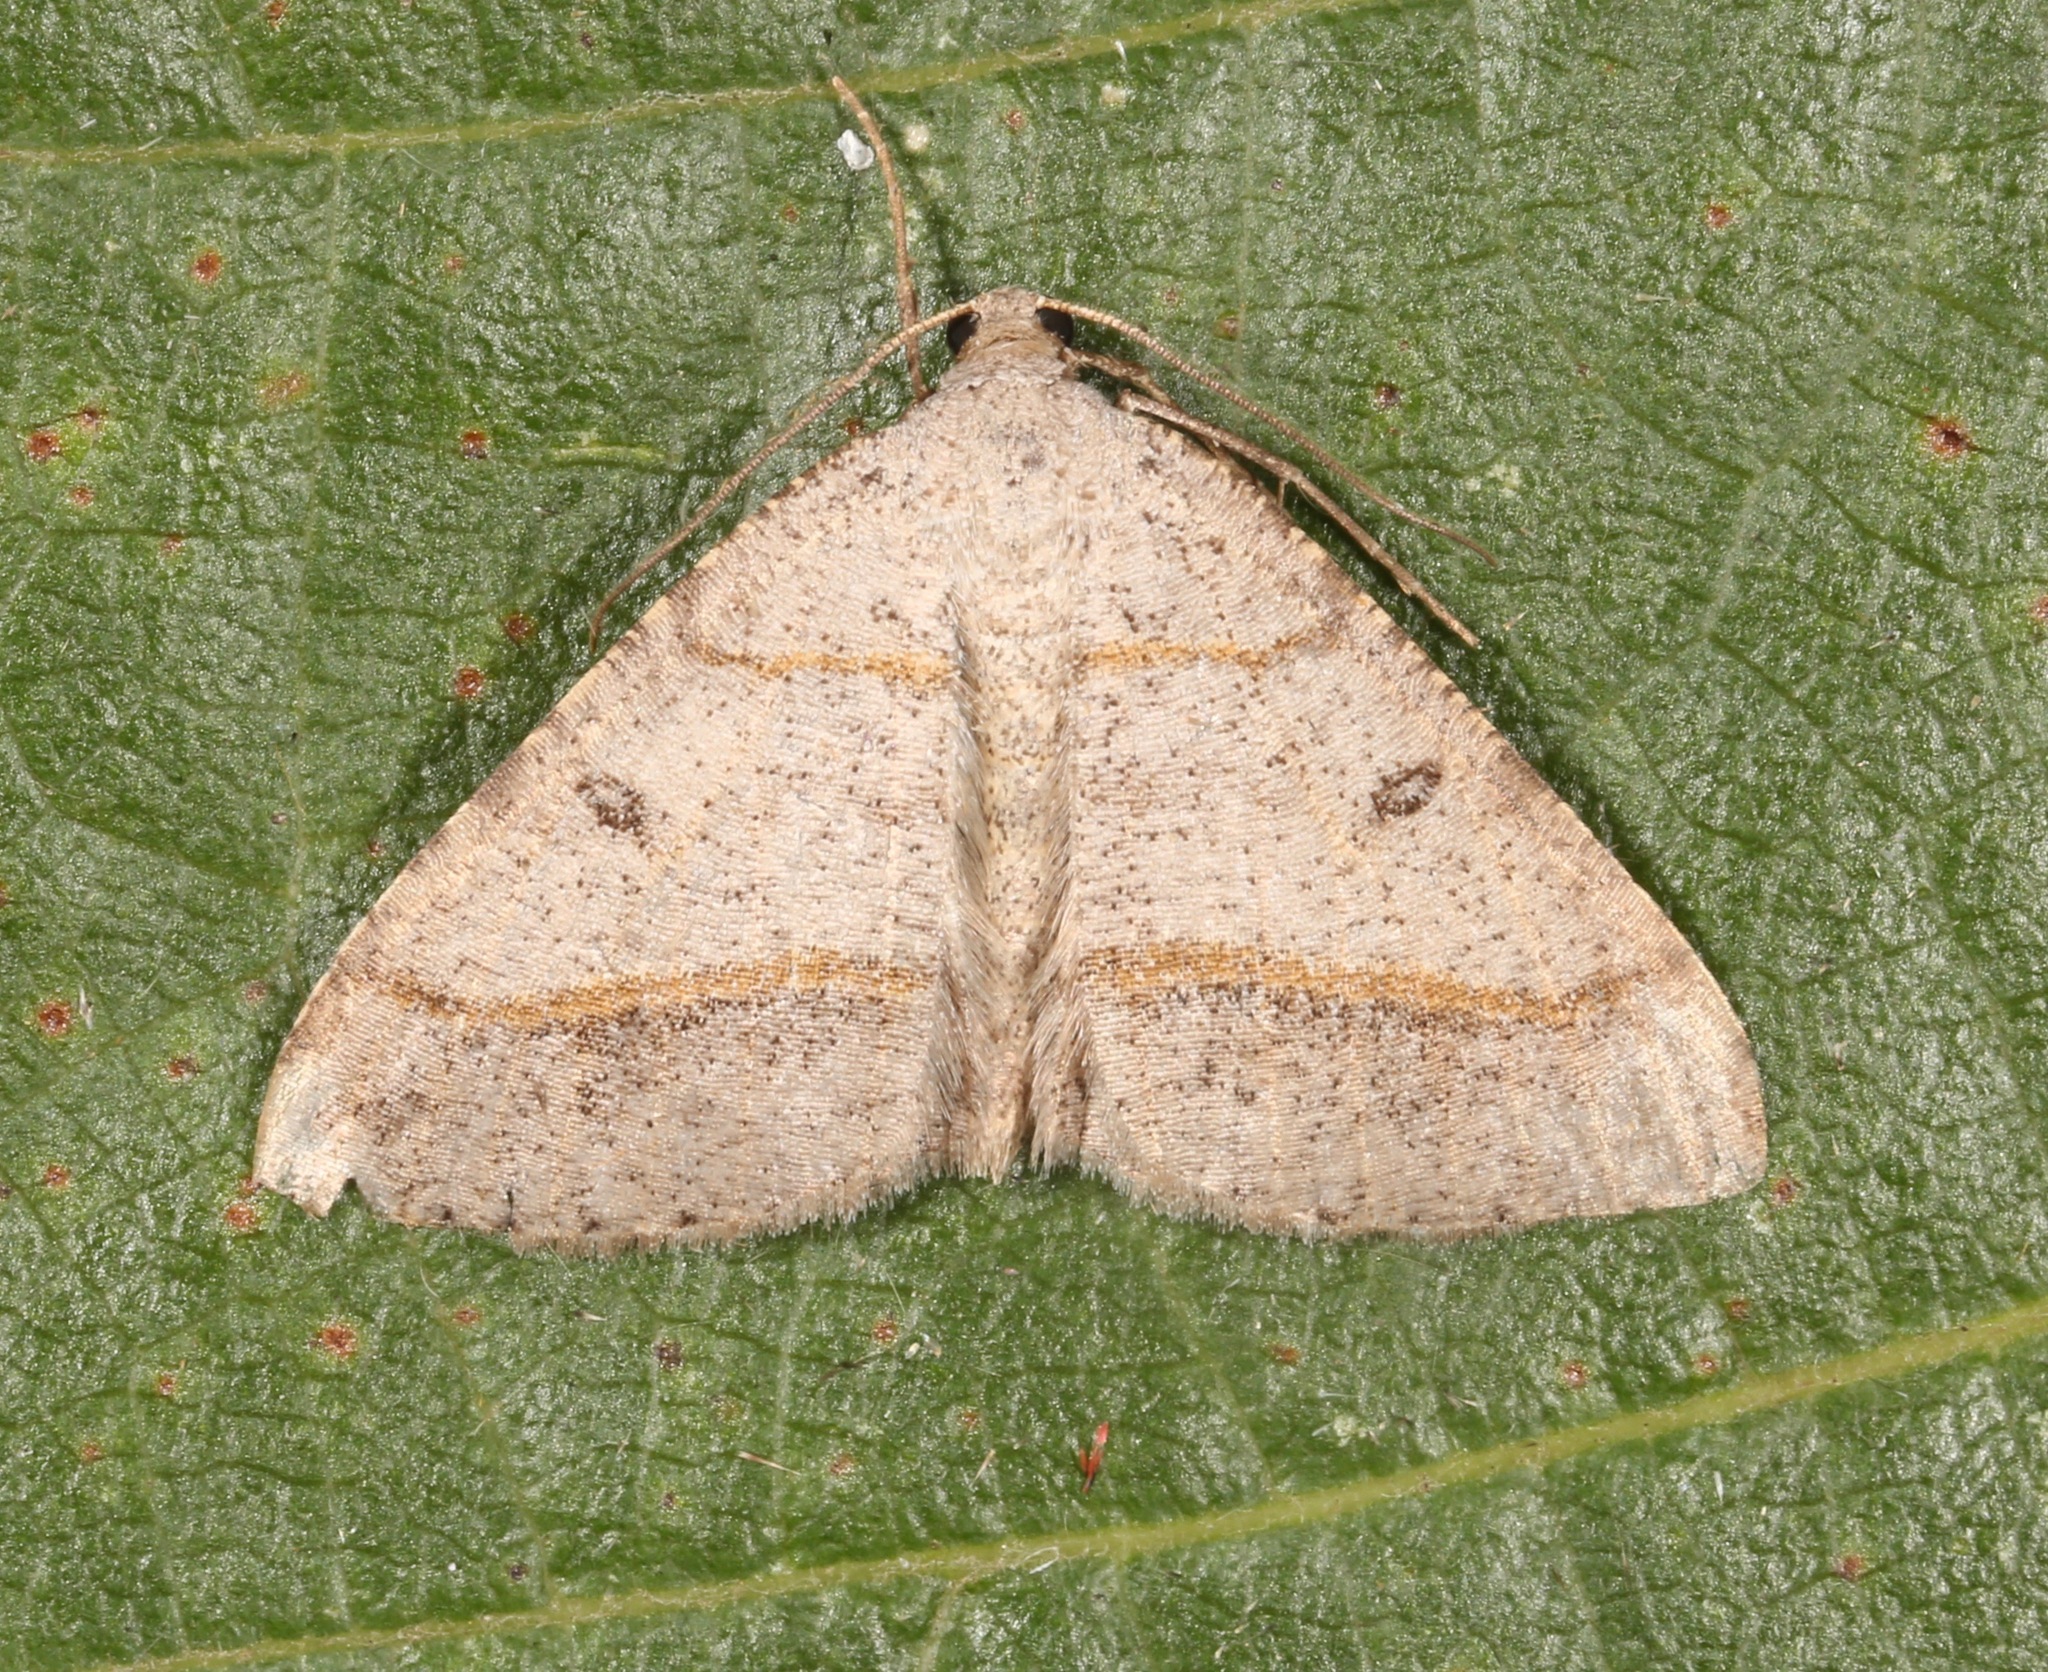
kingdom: Animalia
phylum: Arthropoda
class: Insecta
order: Lepidoptera
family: Geometridae
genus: Digrammia
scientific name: Digrammia neptaria
